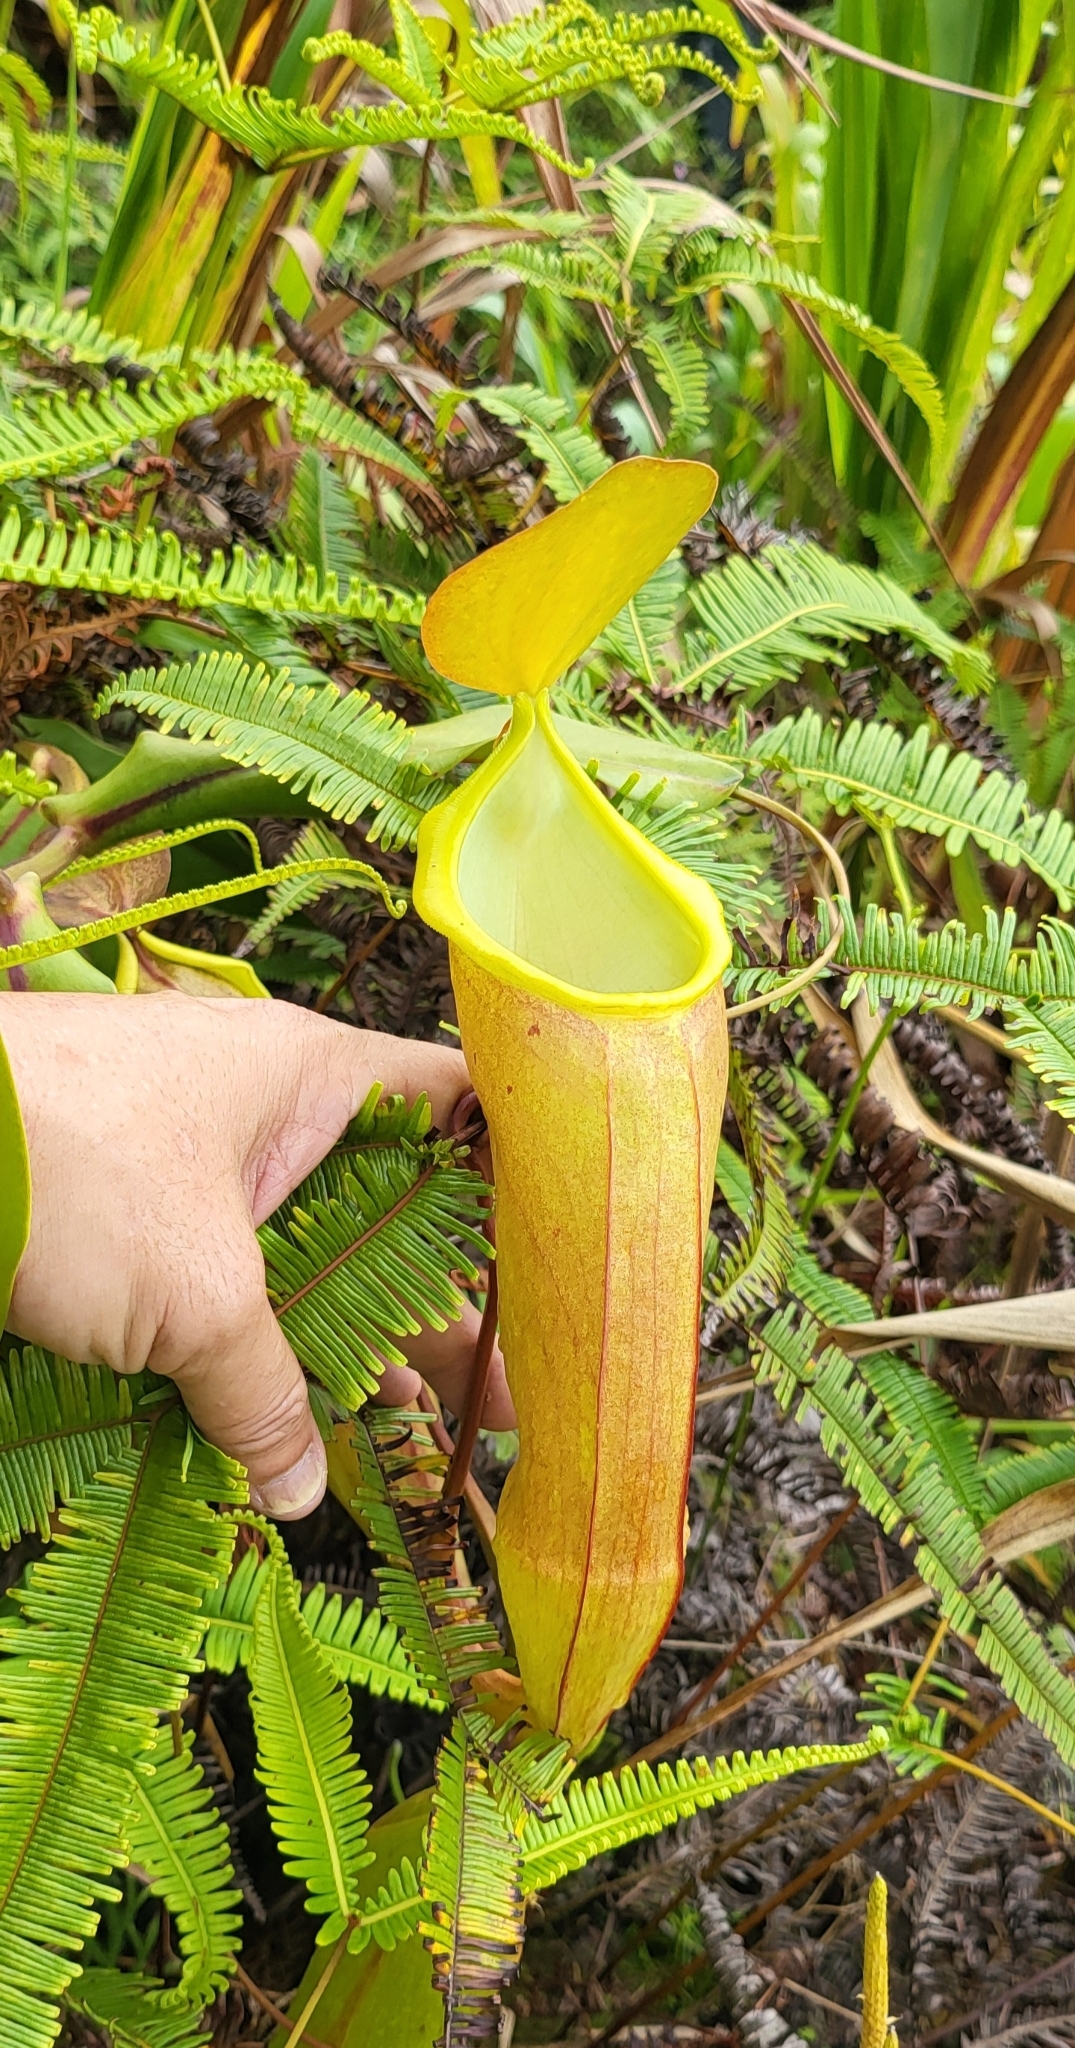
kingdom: Plantae
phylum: Tracheophyta
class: Magnoliopsida
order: Caryophyllales
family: Nepenthaceae
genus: Nepenthes
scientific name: Nepenthes sanguinea
